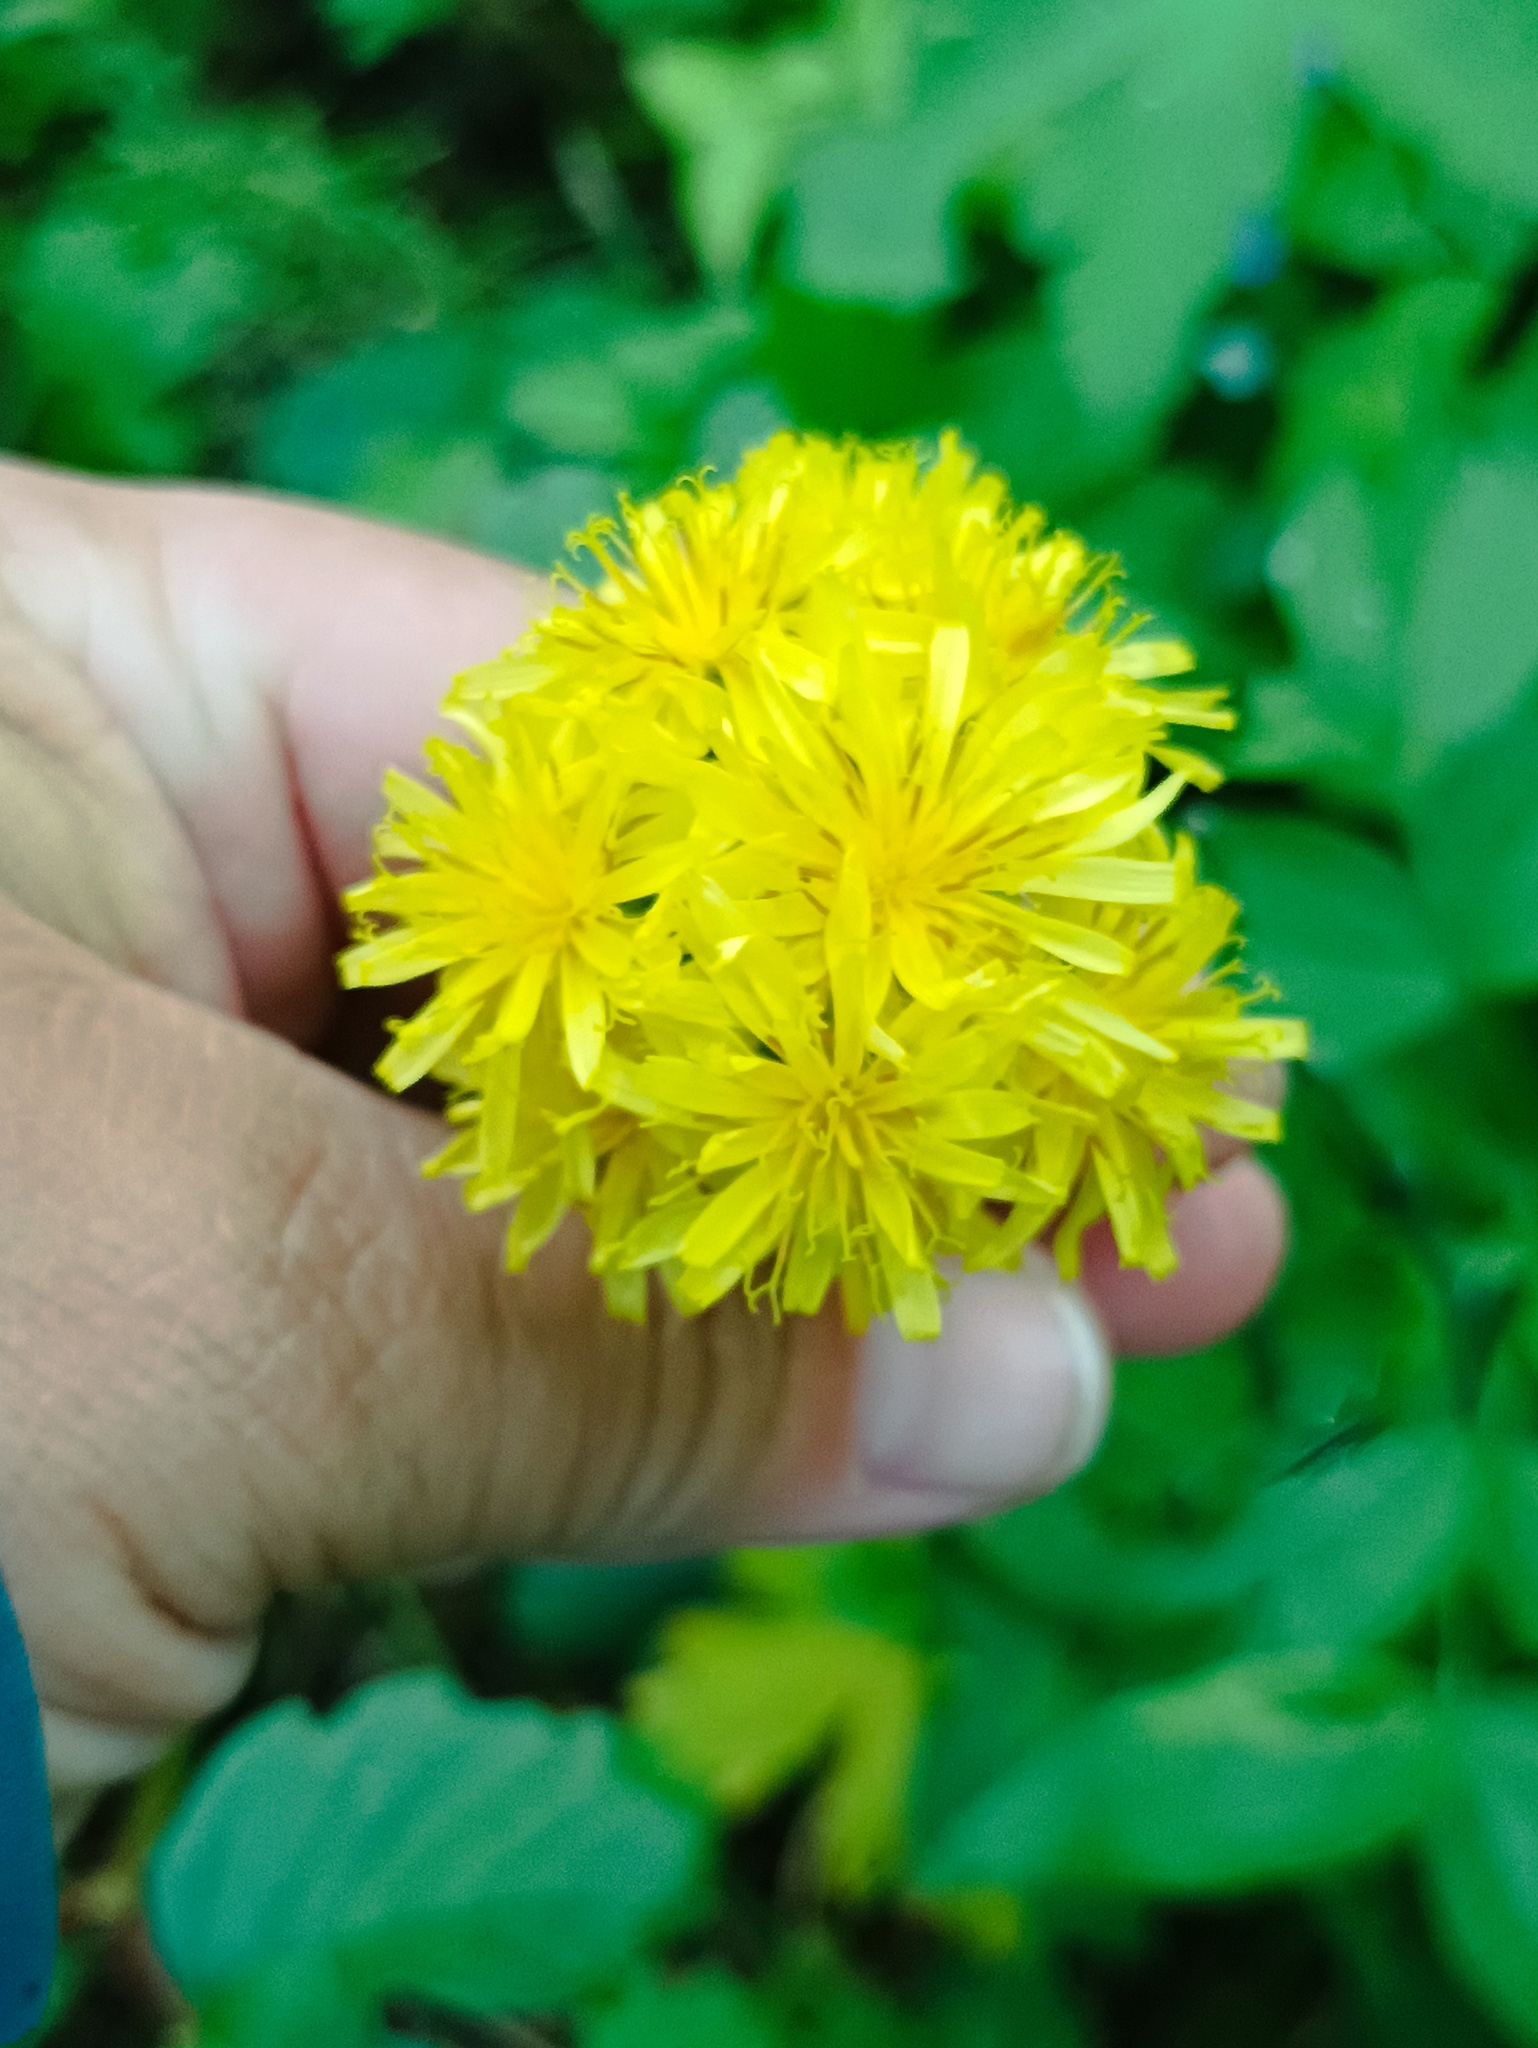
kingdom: Plantae
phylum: Tracheophyta
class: Magnoliopsida
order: Asterales
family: Asteraceae
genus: Crepis
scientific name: Crepis praemorsa
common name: Leafless hawk's-beard
